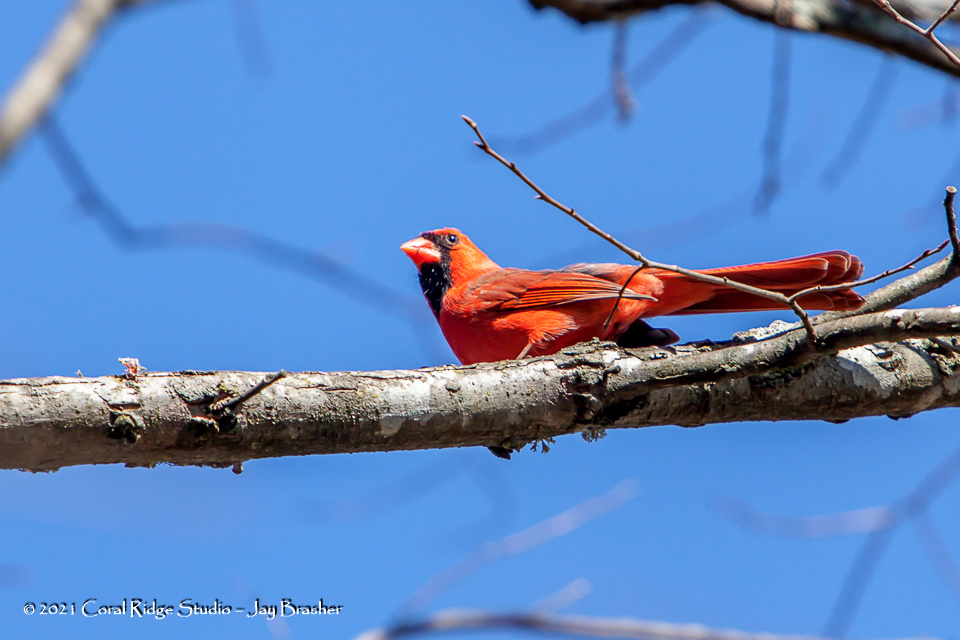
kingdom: Animalia
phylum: Chordata
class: Aves
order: Passeriformes
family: Cardinalidae
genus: Cardinalis
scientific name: Cardinalis cardinalis
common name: Northern cardinal
